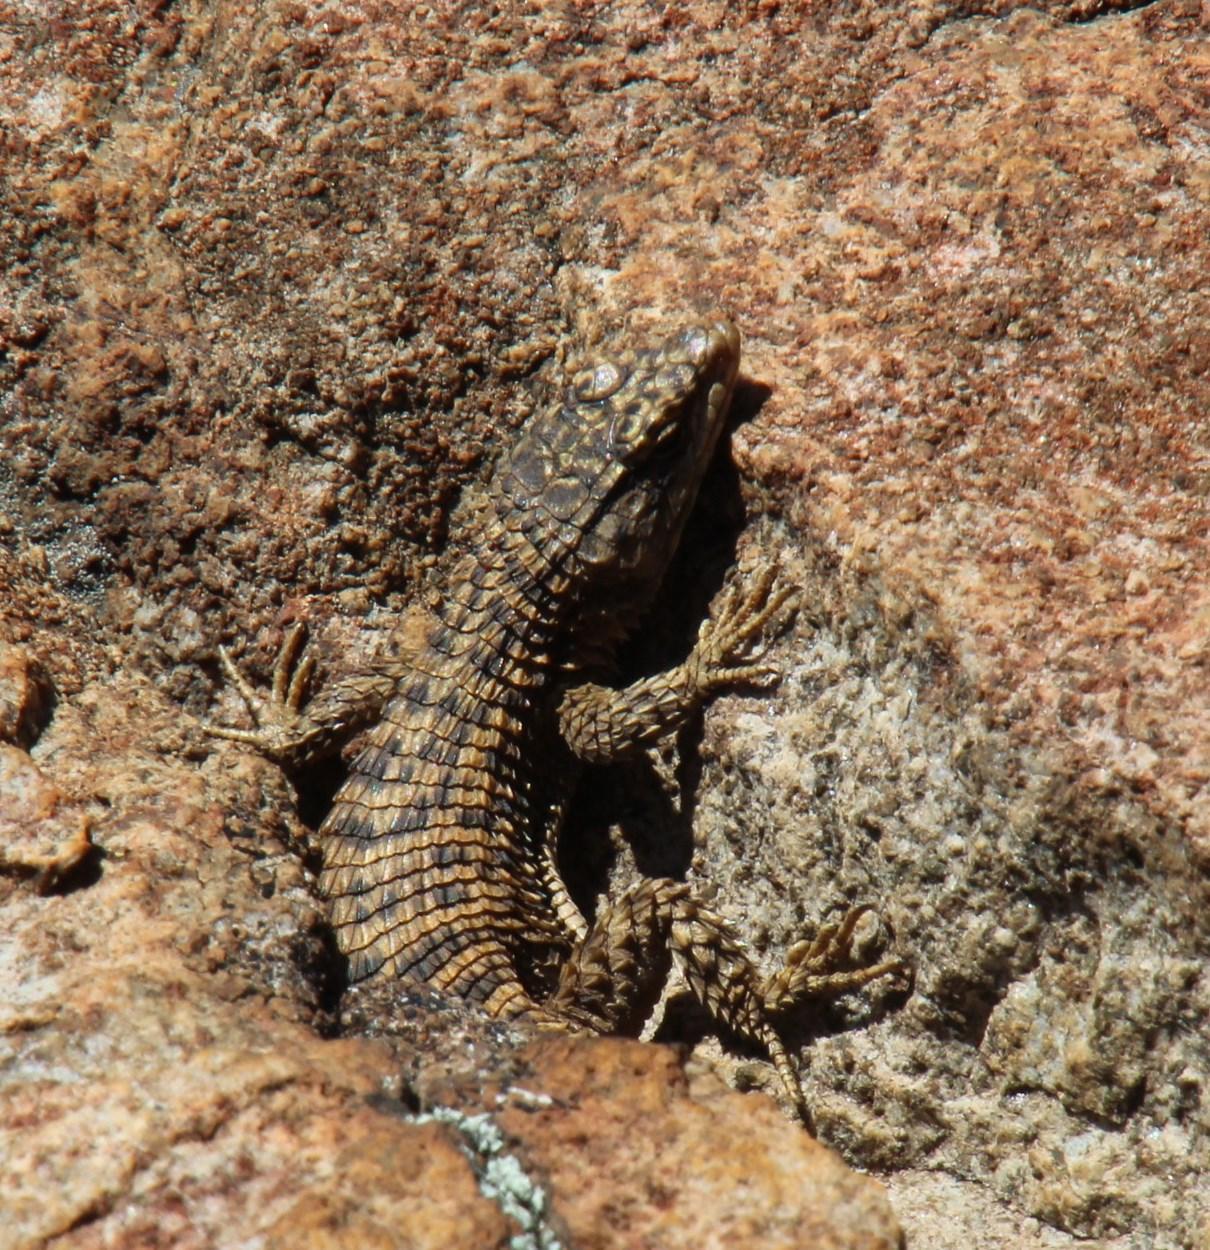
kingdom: Animalia
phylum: Chordata
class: Squamata
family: Cordylidae
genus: Cordylus
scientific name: Cordylus cordylus
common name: Cape girdled lizard
